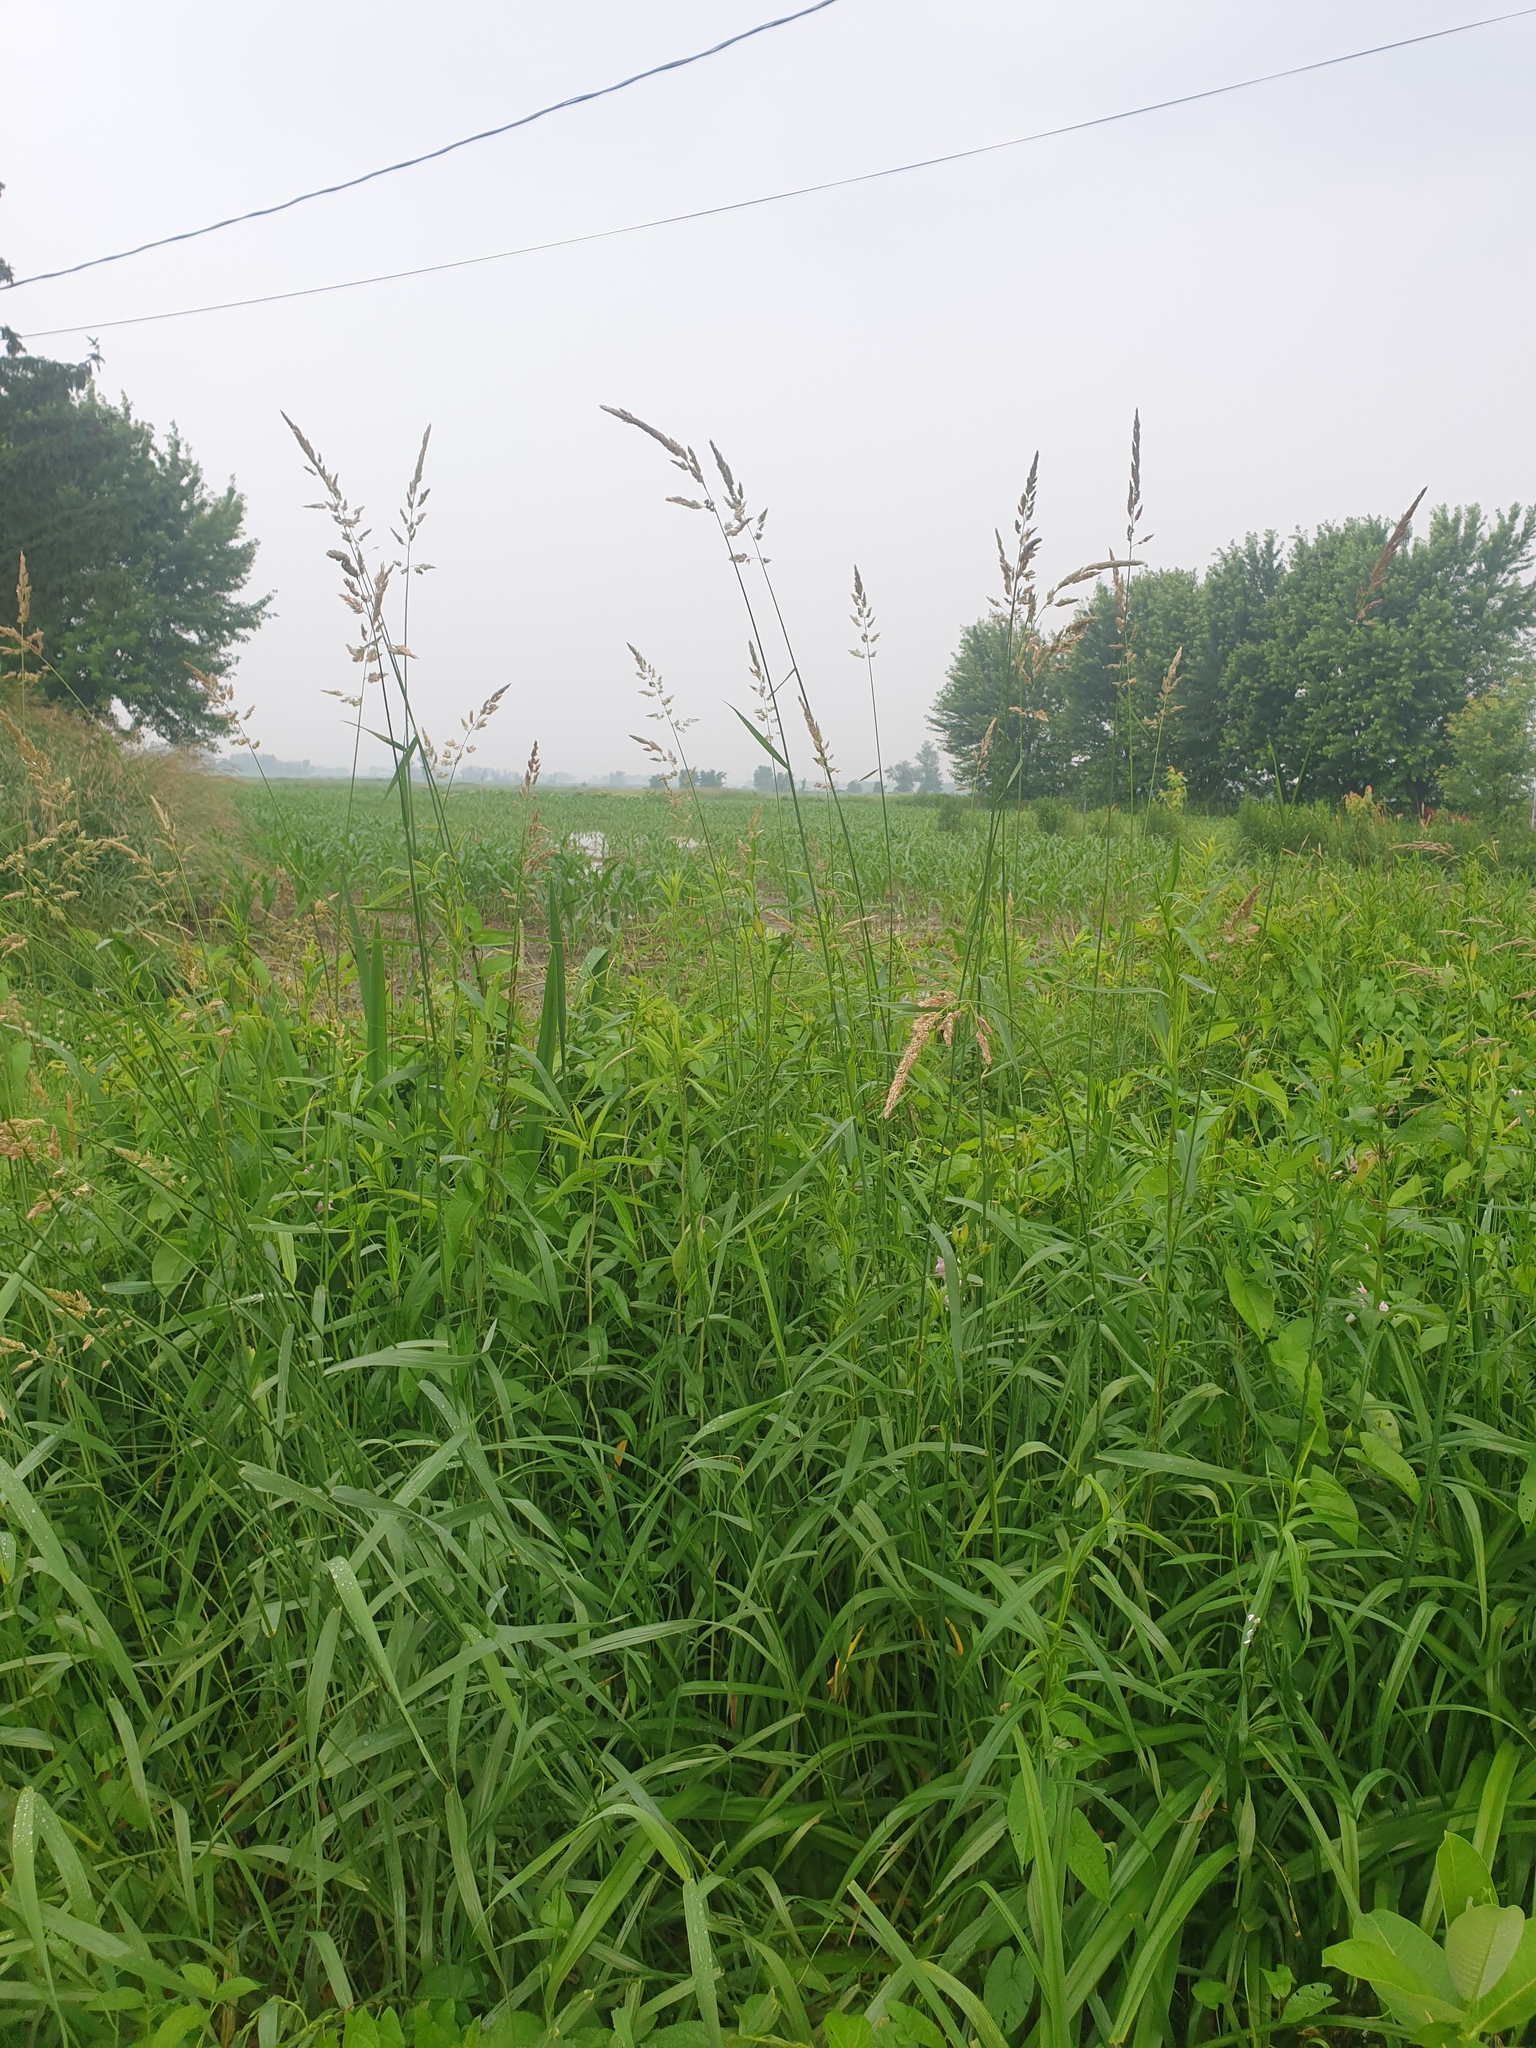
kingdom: Plantae
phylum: Tracheophyta
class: Liliopsida
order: Poales
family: Poaceae
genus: Phalaris
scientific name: Phalaris arundinacea
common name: Reed canary-grass
